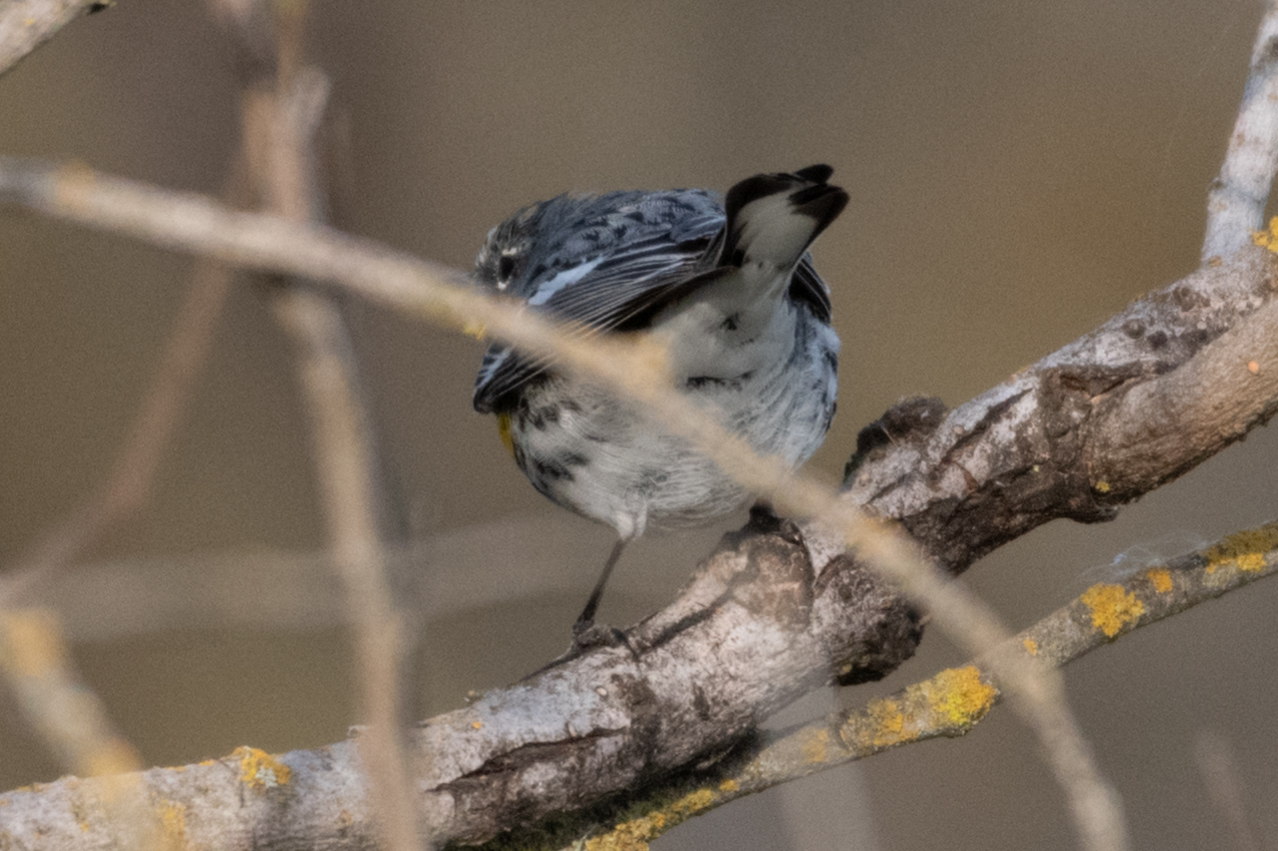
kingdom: Animalia
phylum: Chordata
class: Aves
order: Passeriformes
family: Parulidae
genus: Setophaga
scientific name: Setophaga auduboni
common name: Audubon's warbler
